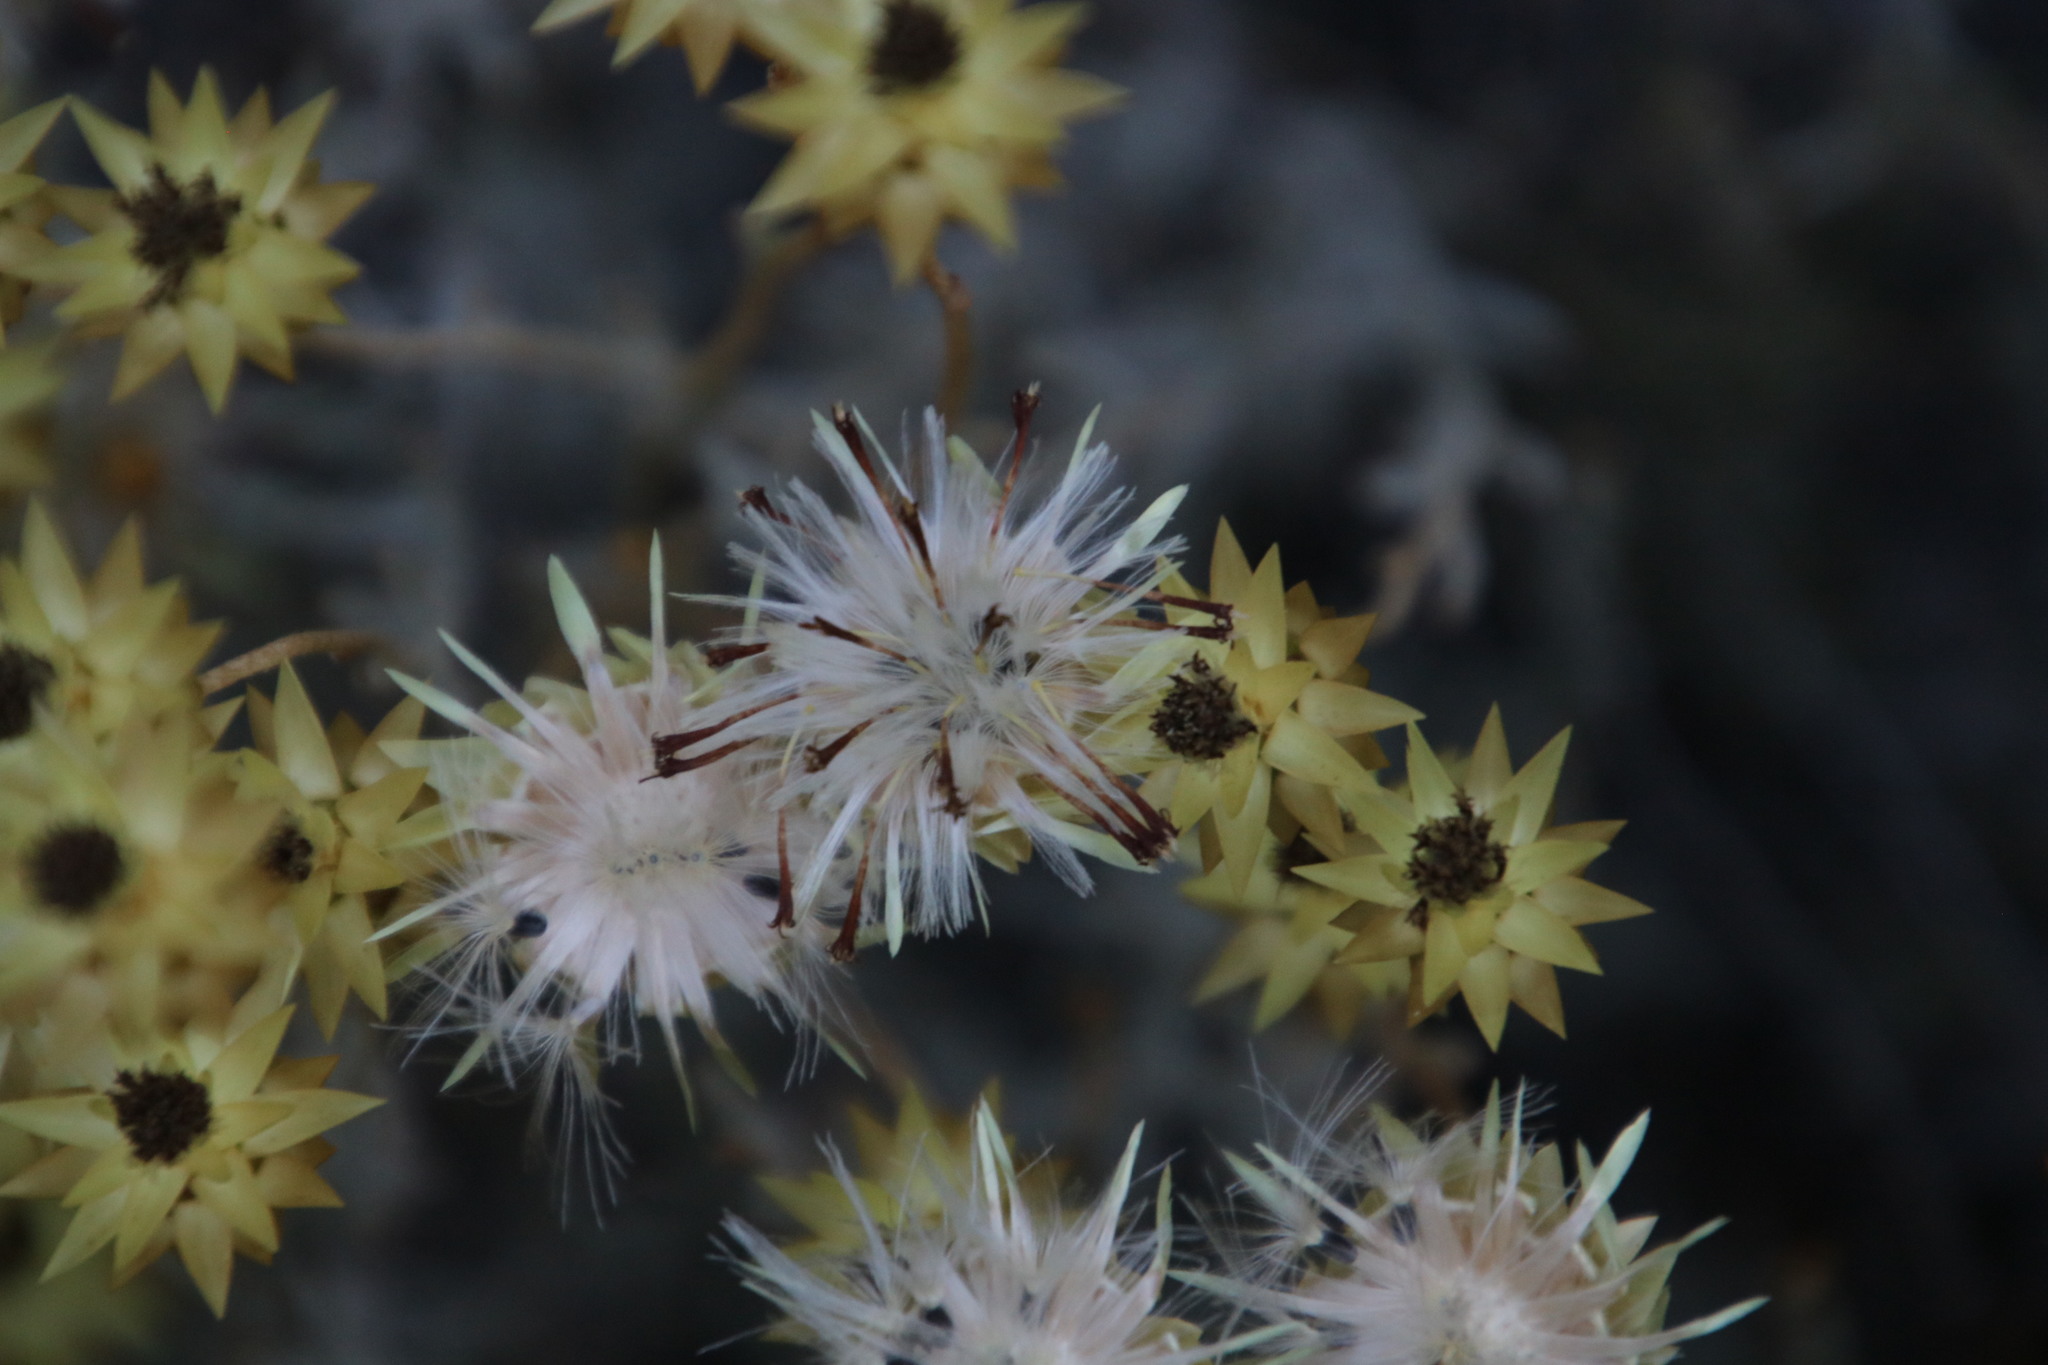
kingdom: Plantae
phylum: Tracheophyta
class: Magnoliopsida
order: Asterales
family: Asteraceae
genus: Syncarpha
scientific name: Syncarpha staehelina
